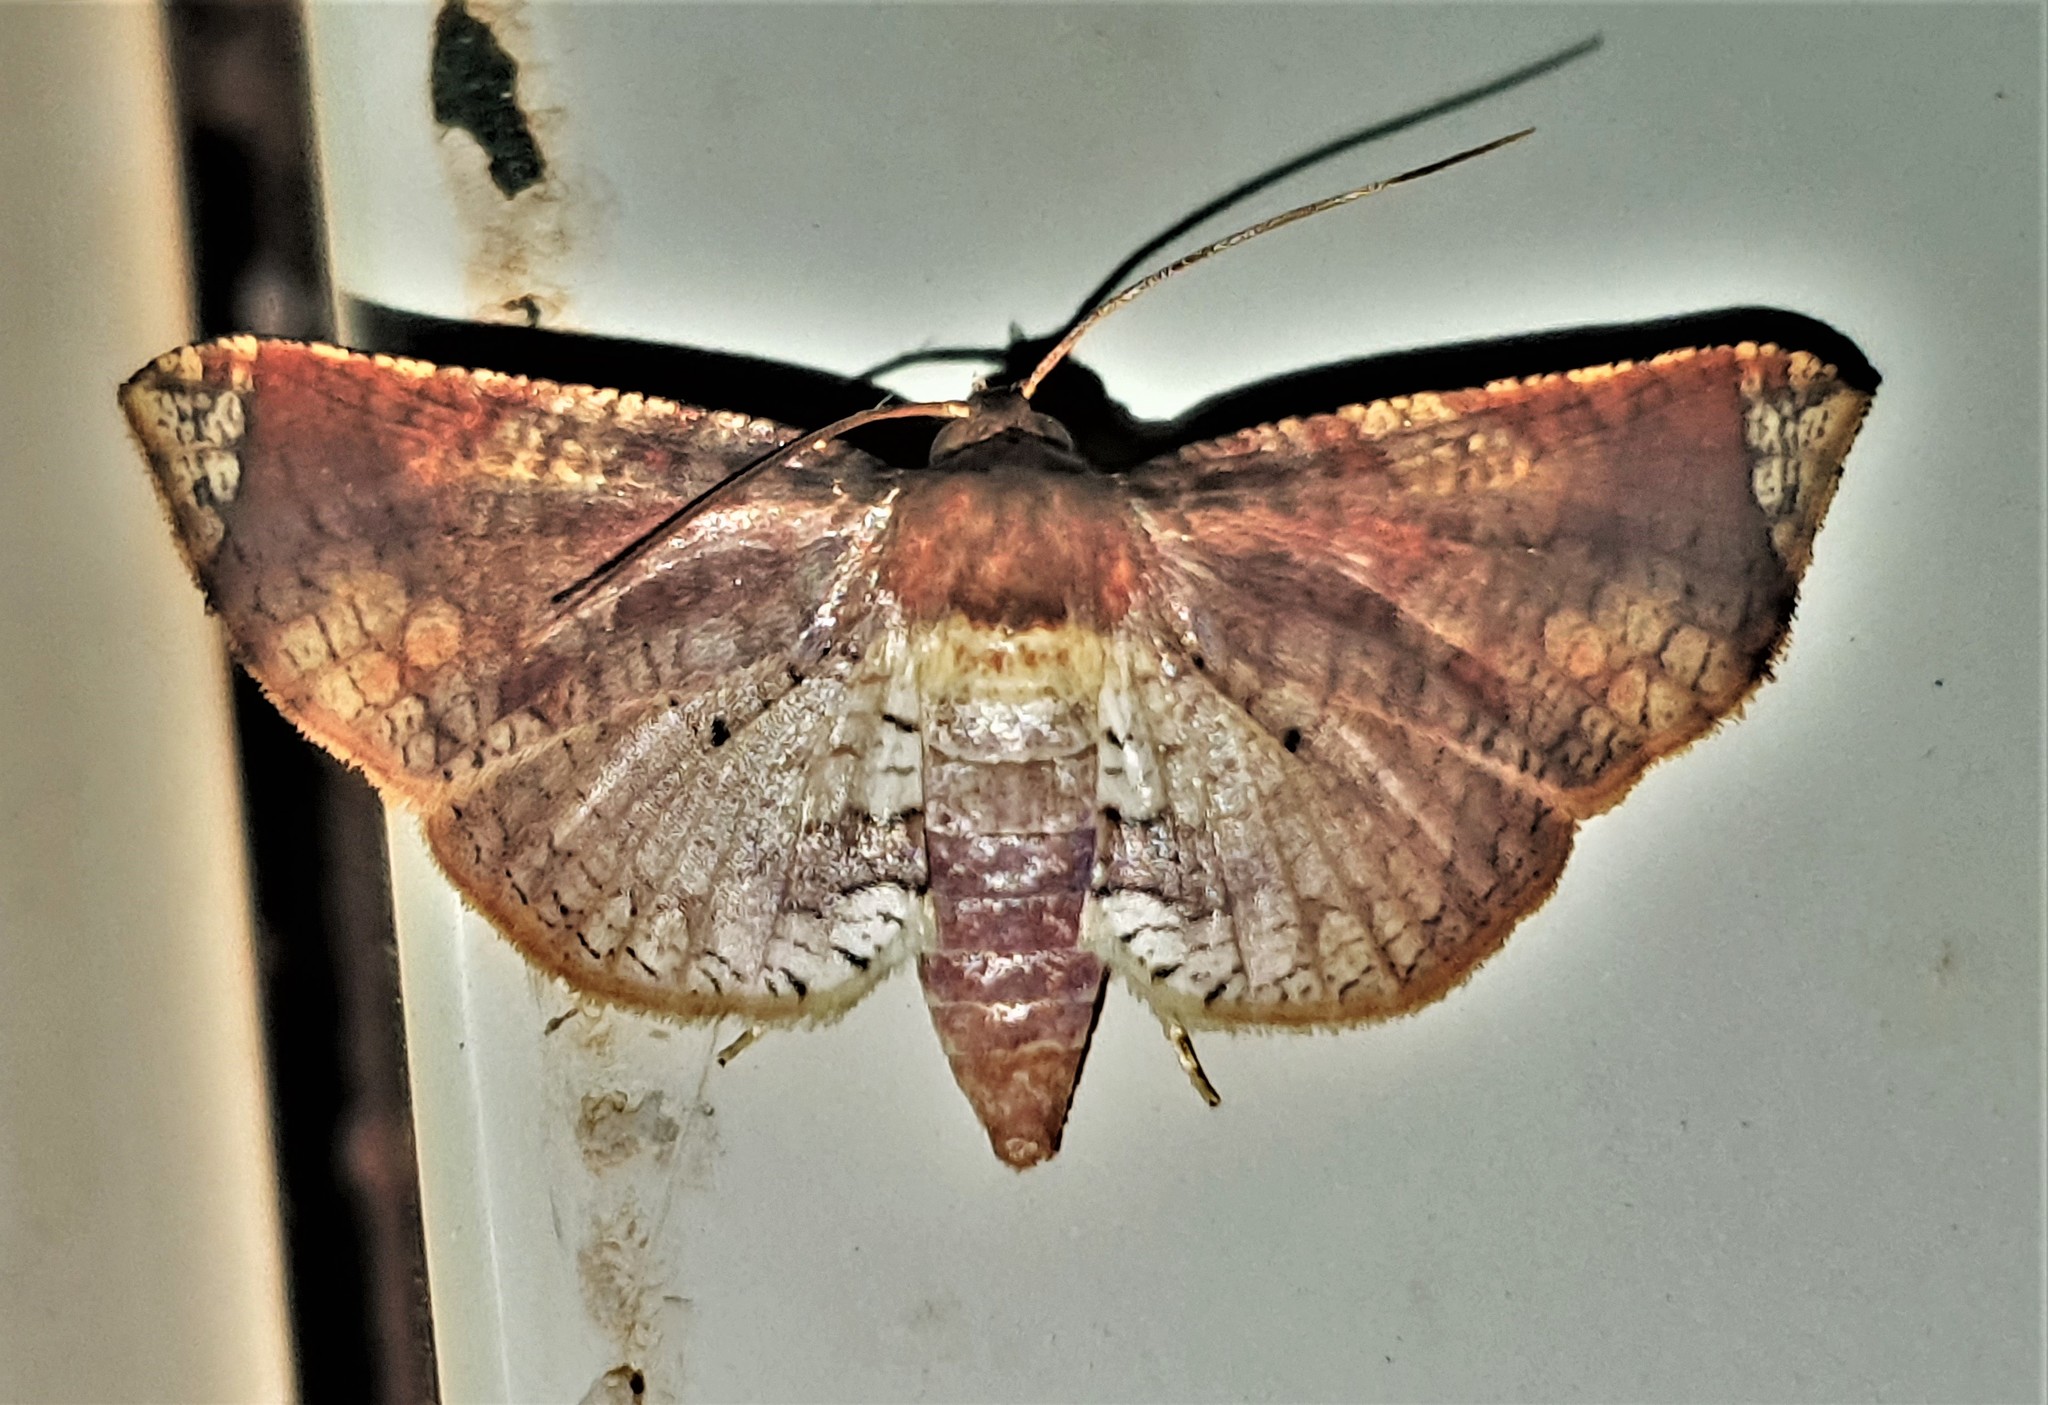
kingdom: Animalia
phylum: Arthropoda
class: Insecta
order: Lepidoptera
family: Thyrididae
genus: Microsca
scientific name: Microsca hedilalis
